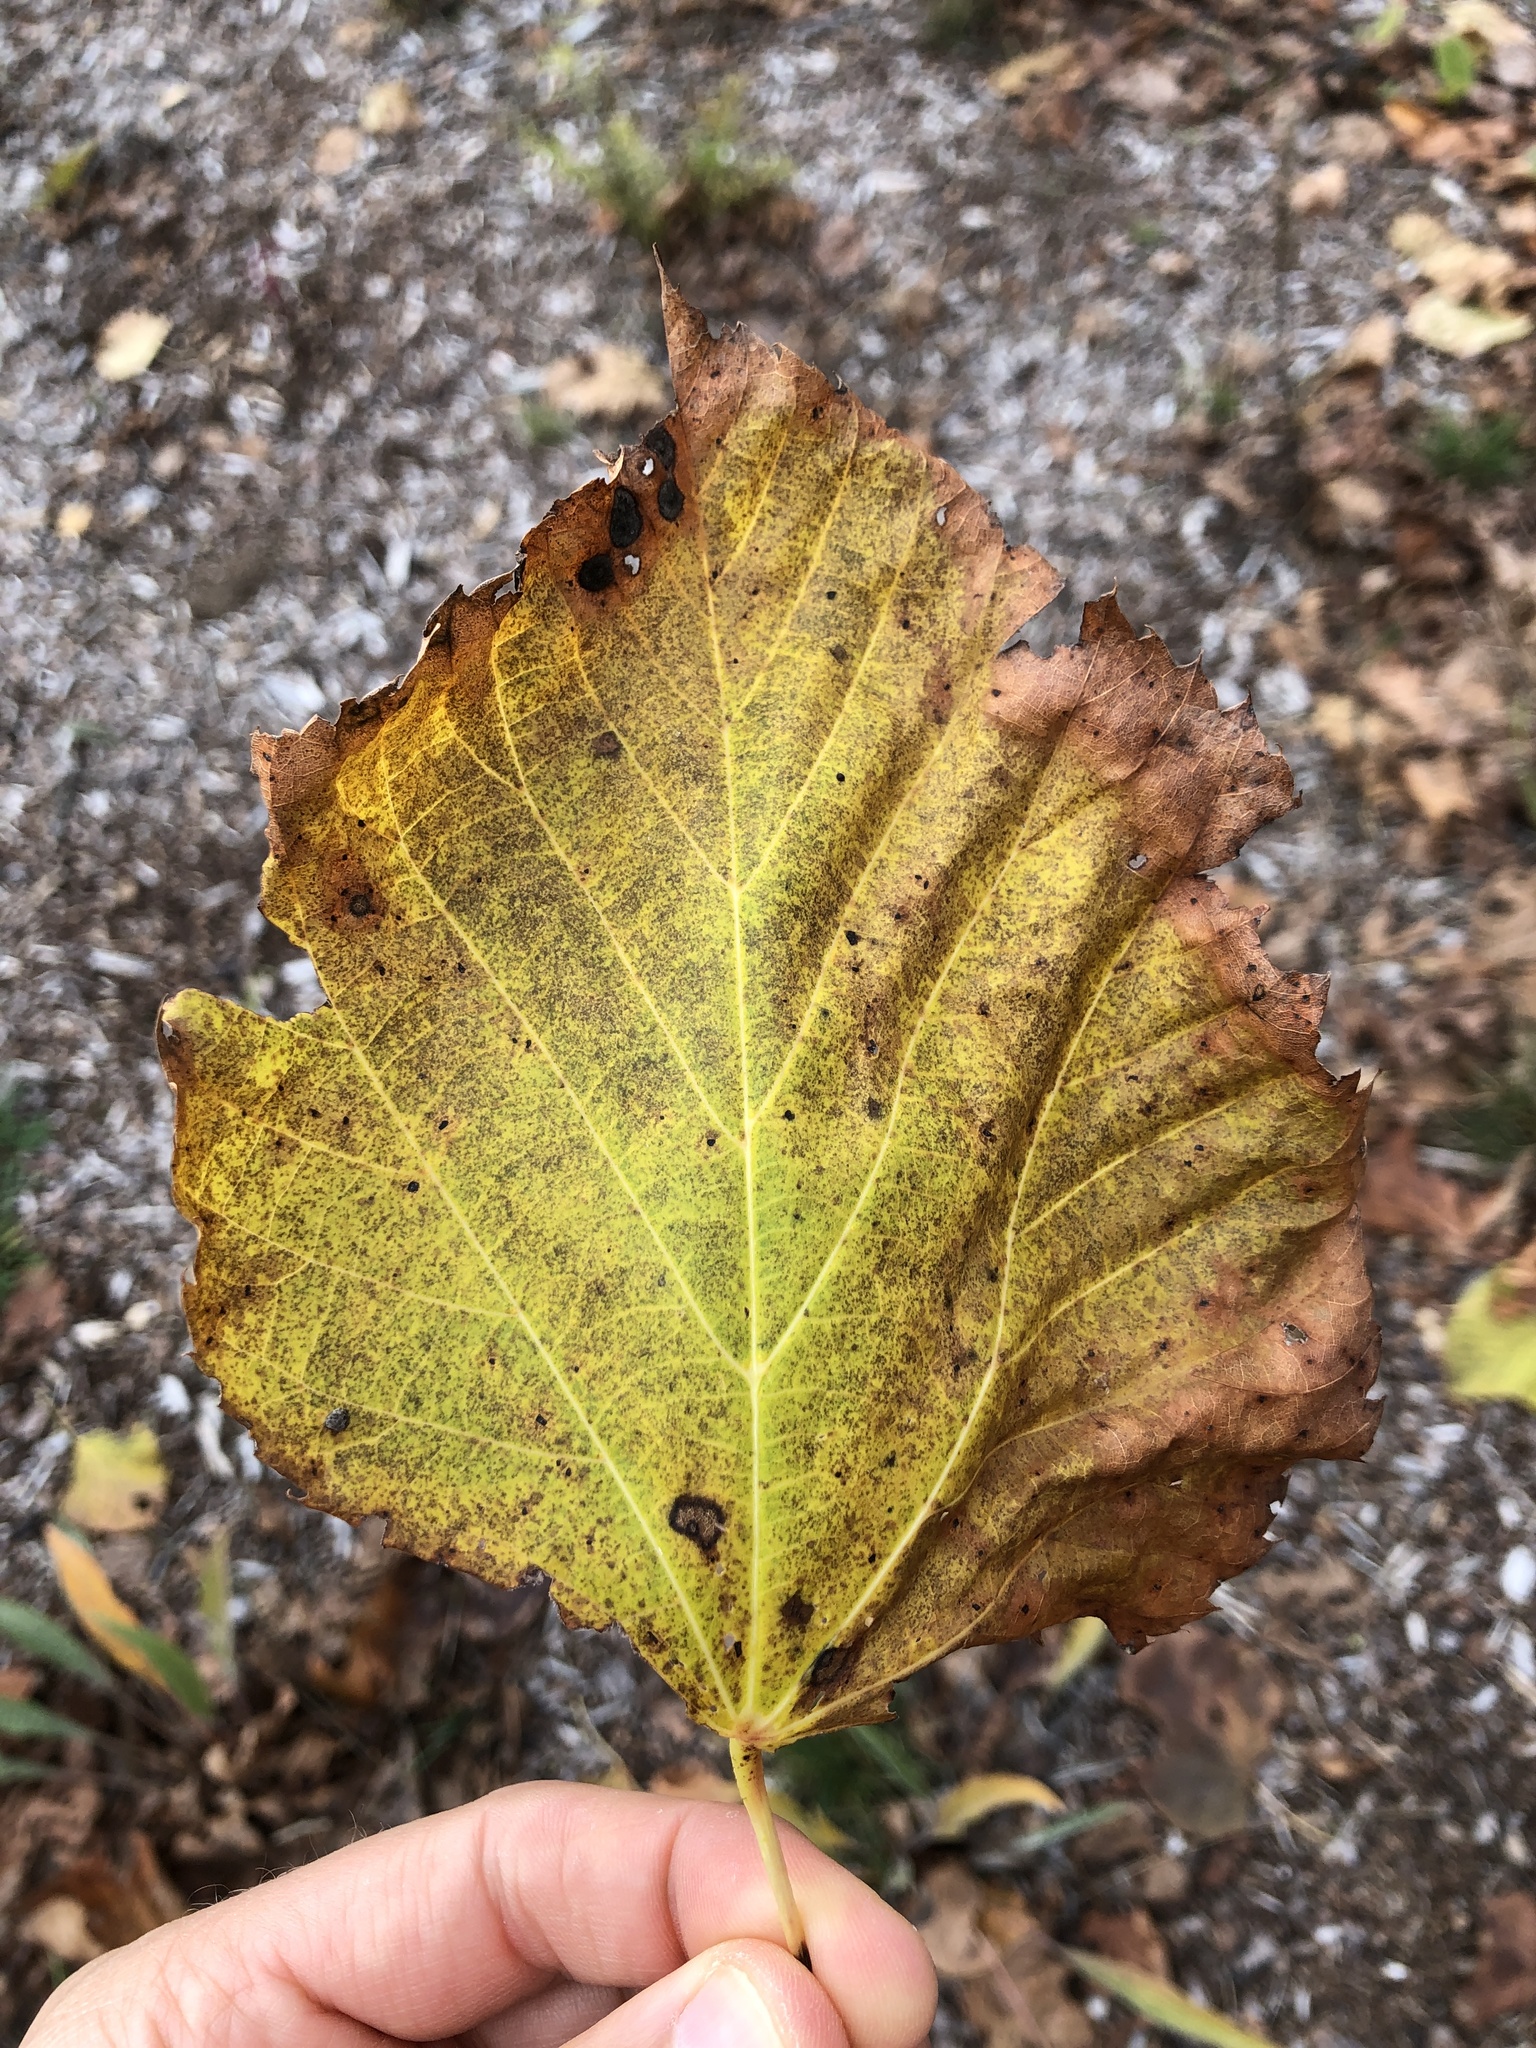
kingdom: Plantae
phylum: Tracheophyta
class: Magnoliopsida
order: Malvales
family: Malvaceae
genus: Tilia
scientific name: Tilia americana
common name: Basswood
